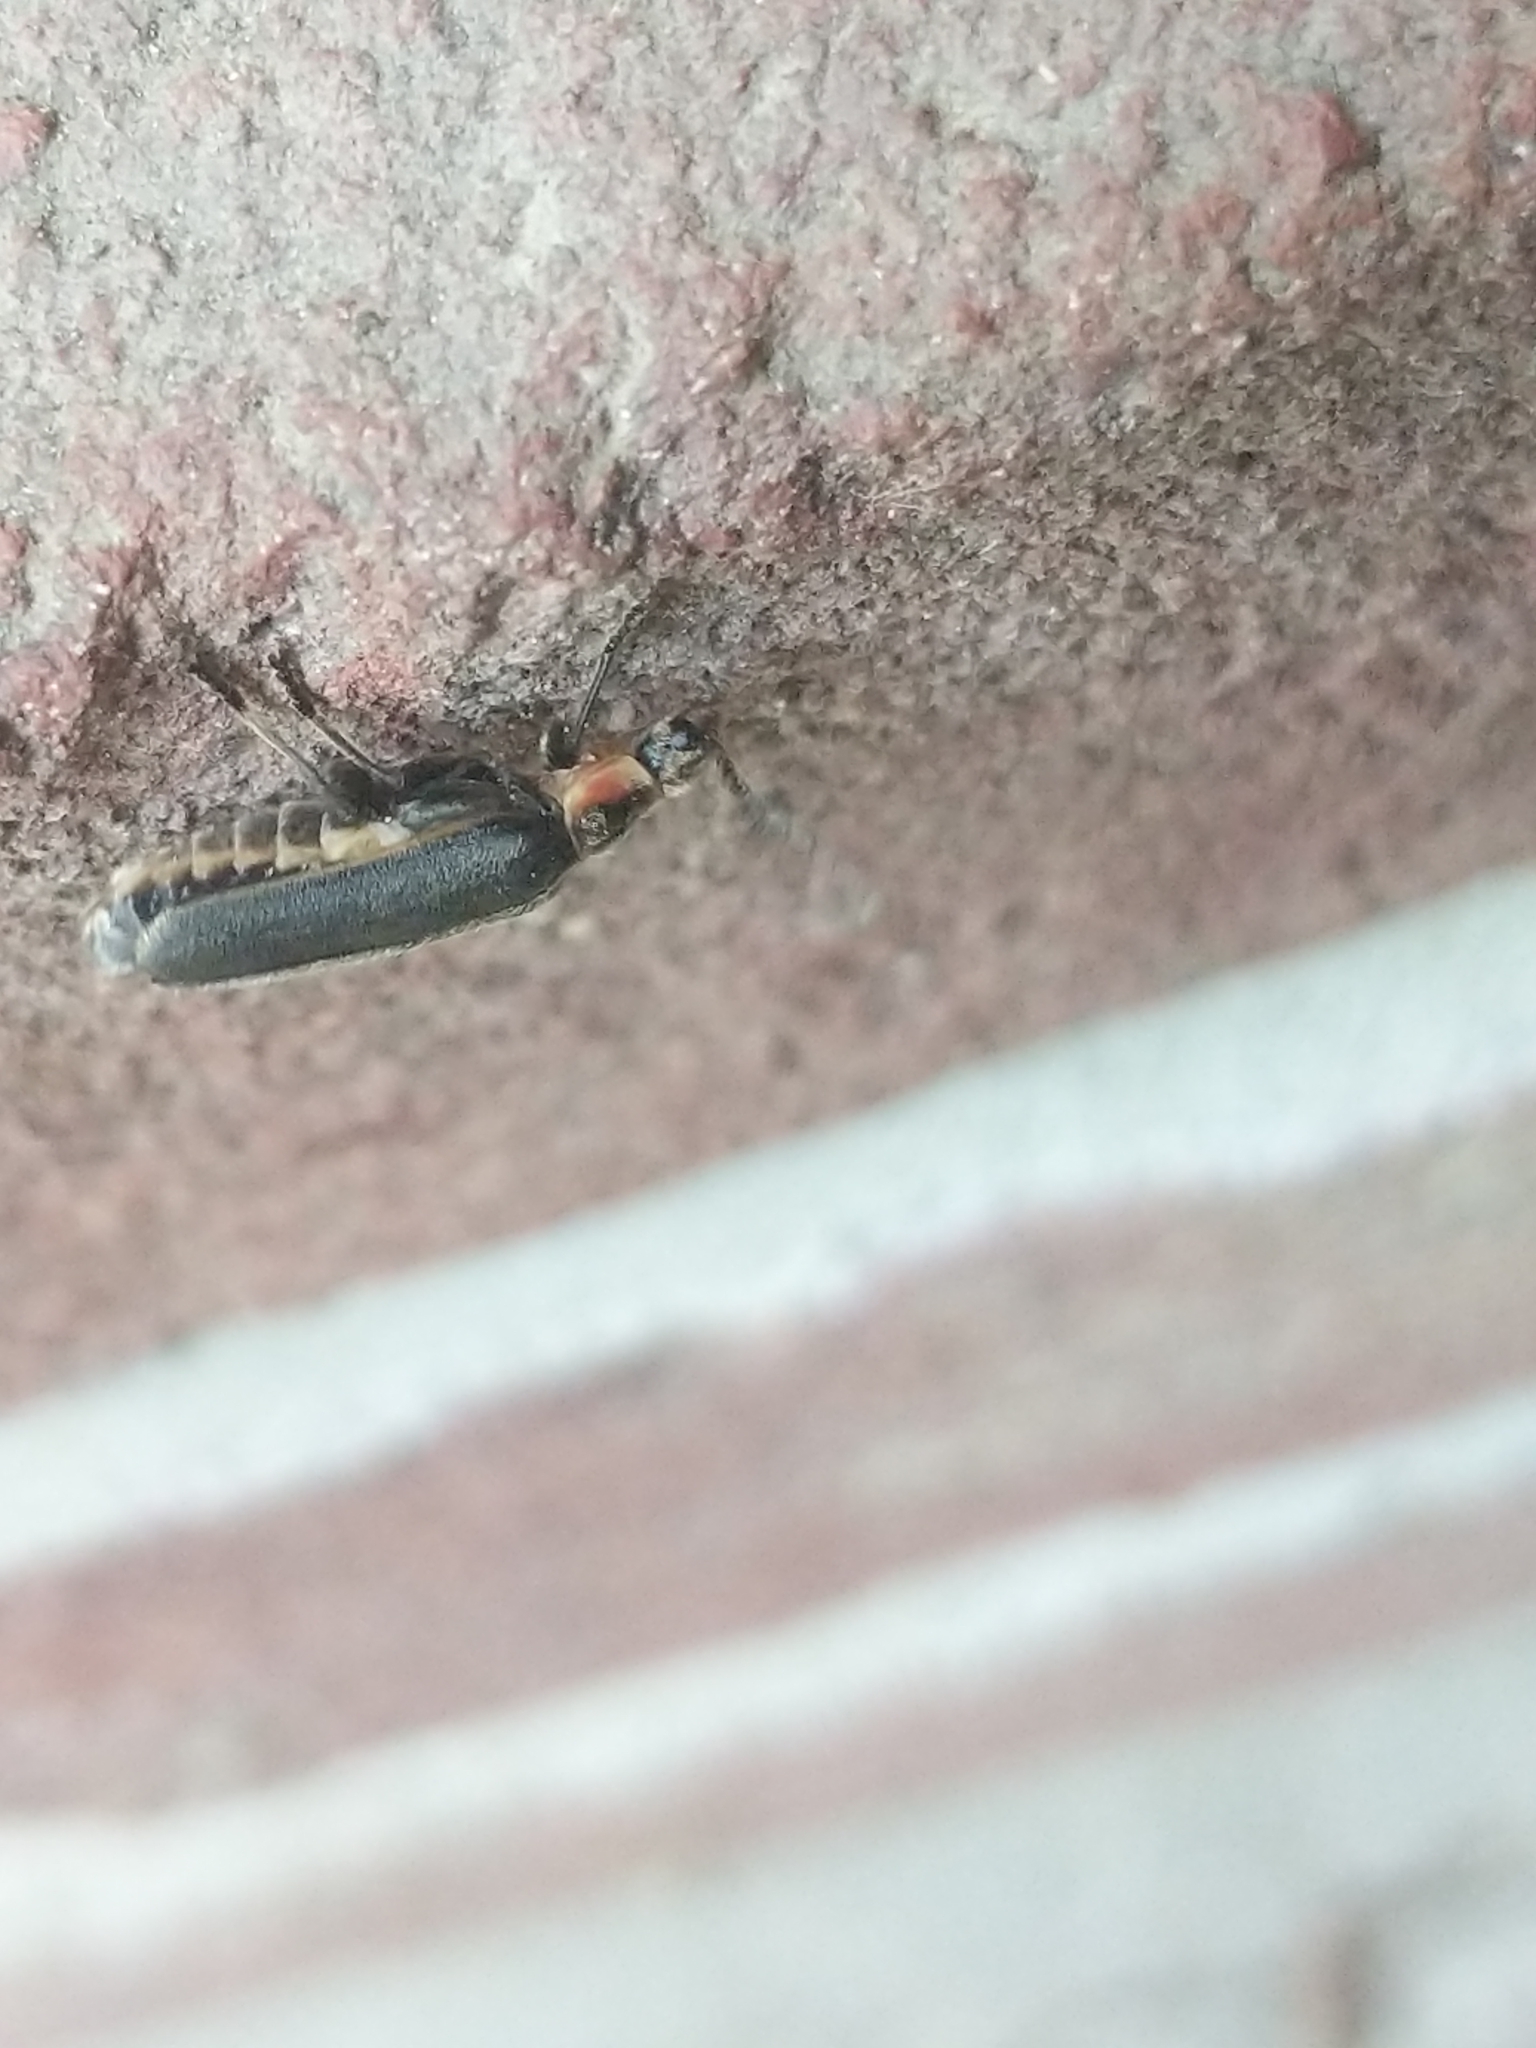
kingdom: Animalia
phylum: Arthropoda
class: Insecta
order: Coleoptera
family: Cantharidae
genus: Atalantycha
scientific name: Atalantycha dentigera
